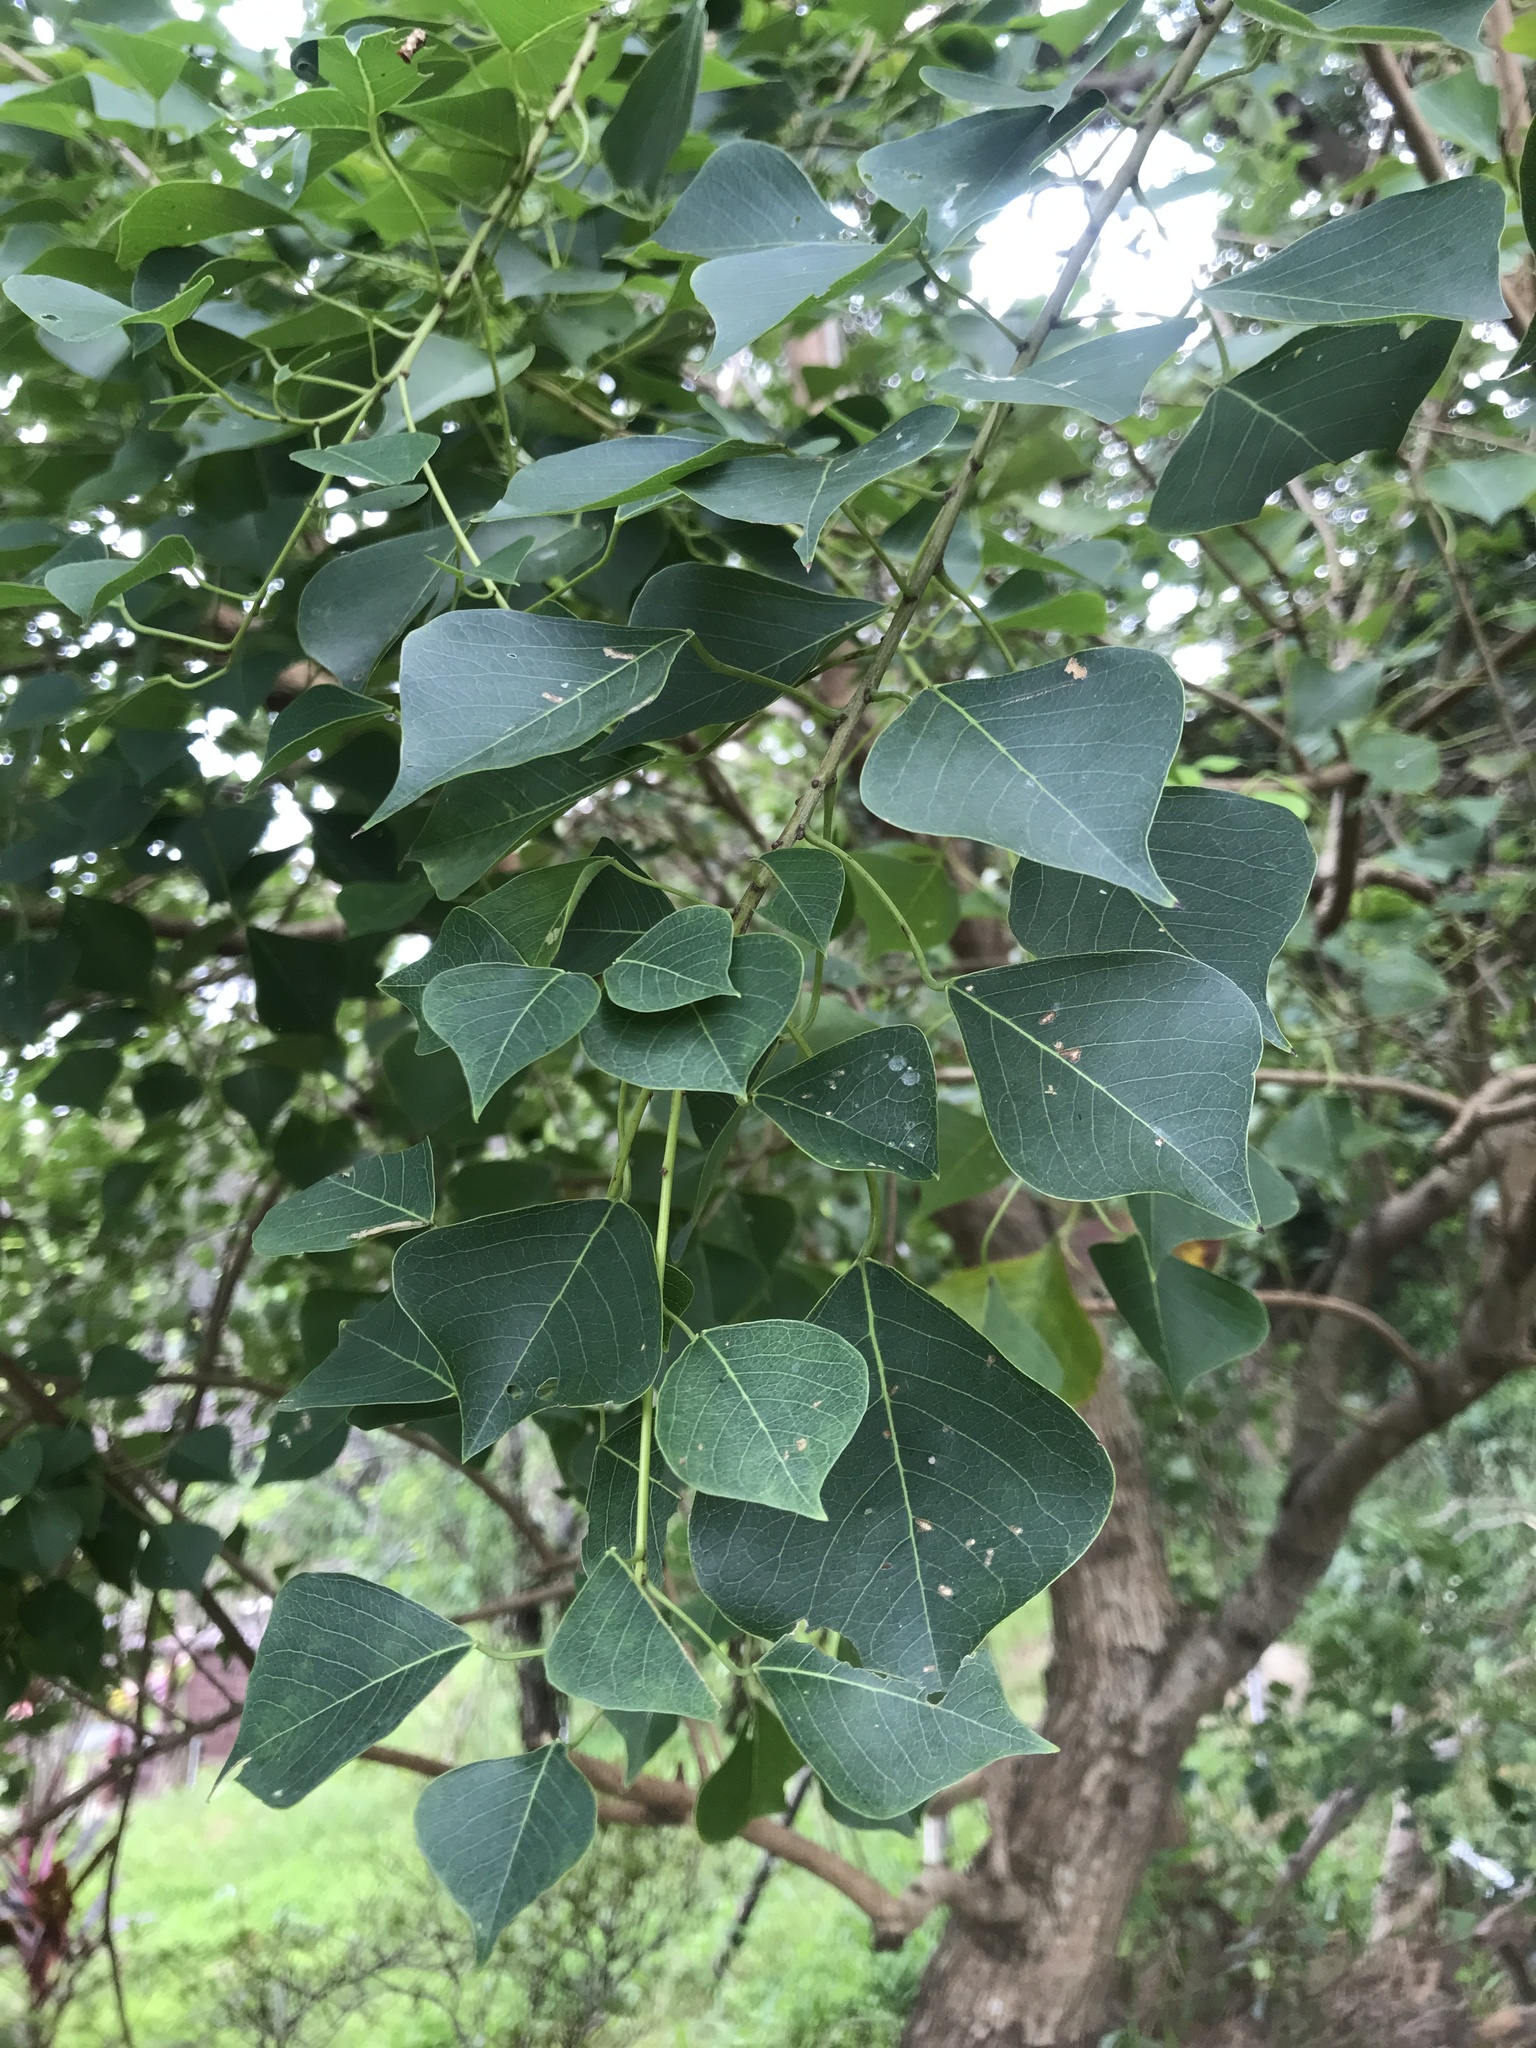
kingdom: Plantae
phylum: Tracheophyta
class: Magnoliopsida
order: Malpighiales
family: Euphorbiaceae
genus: Triadica
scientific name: Triadica sebifera
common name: Chinese tallow
